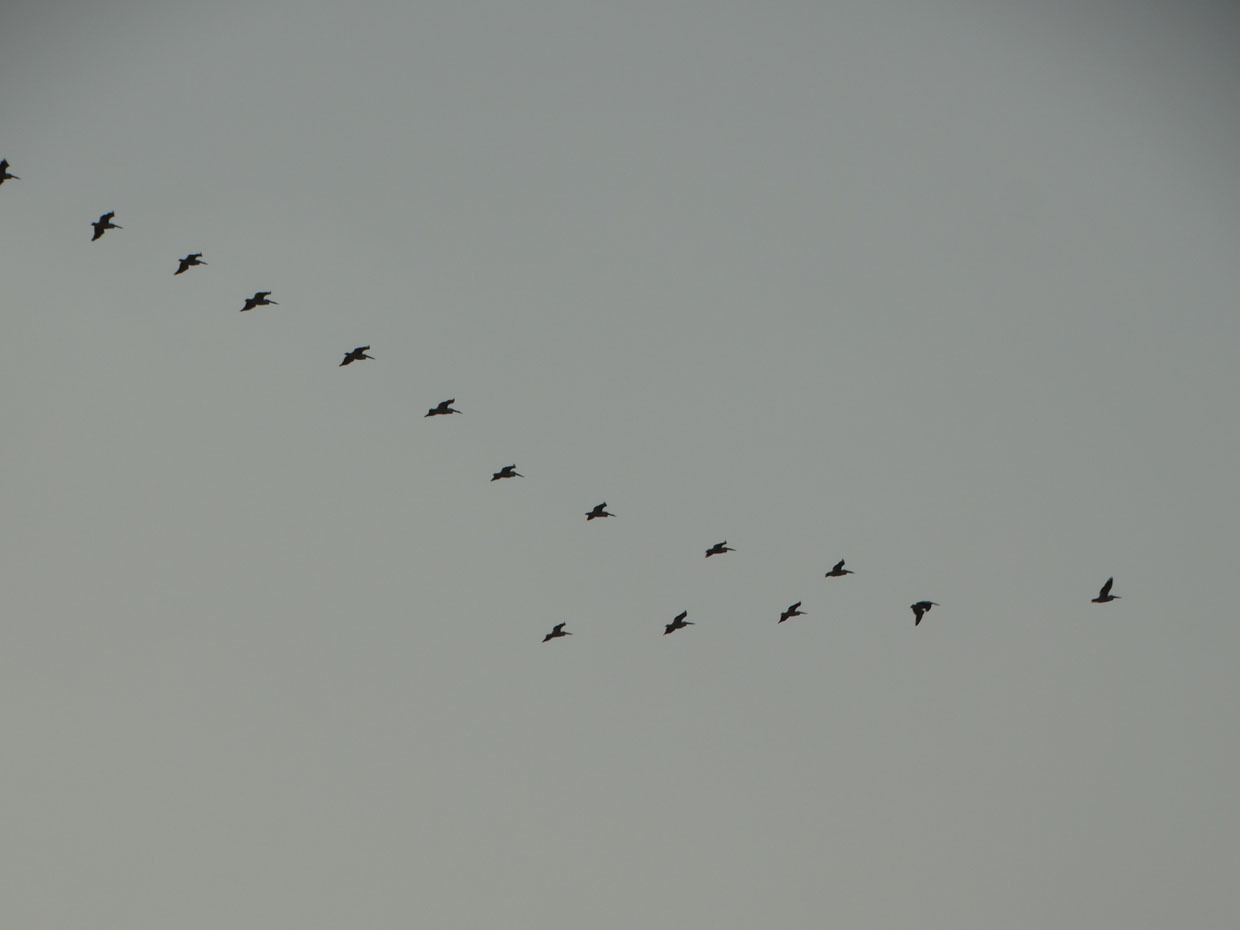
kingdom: Animalia
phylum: Chordata
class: Aves
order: Pelecaniformes
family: Pelecanidae
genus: Pelecanus
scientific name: Pelecanus erythrorhynchos
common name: American white pelican
